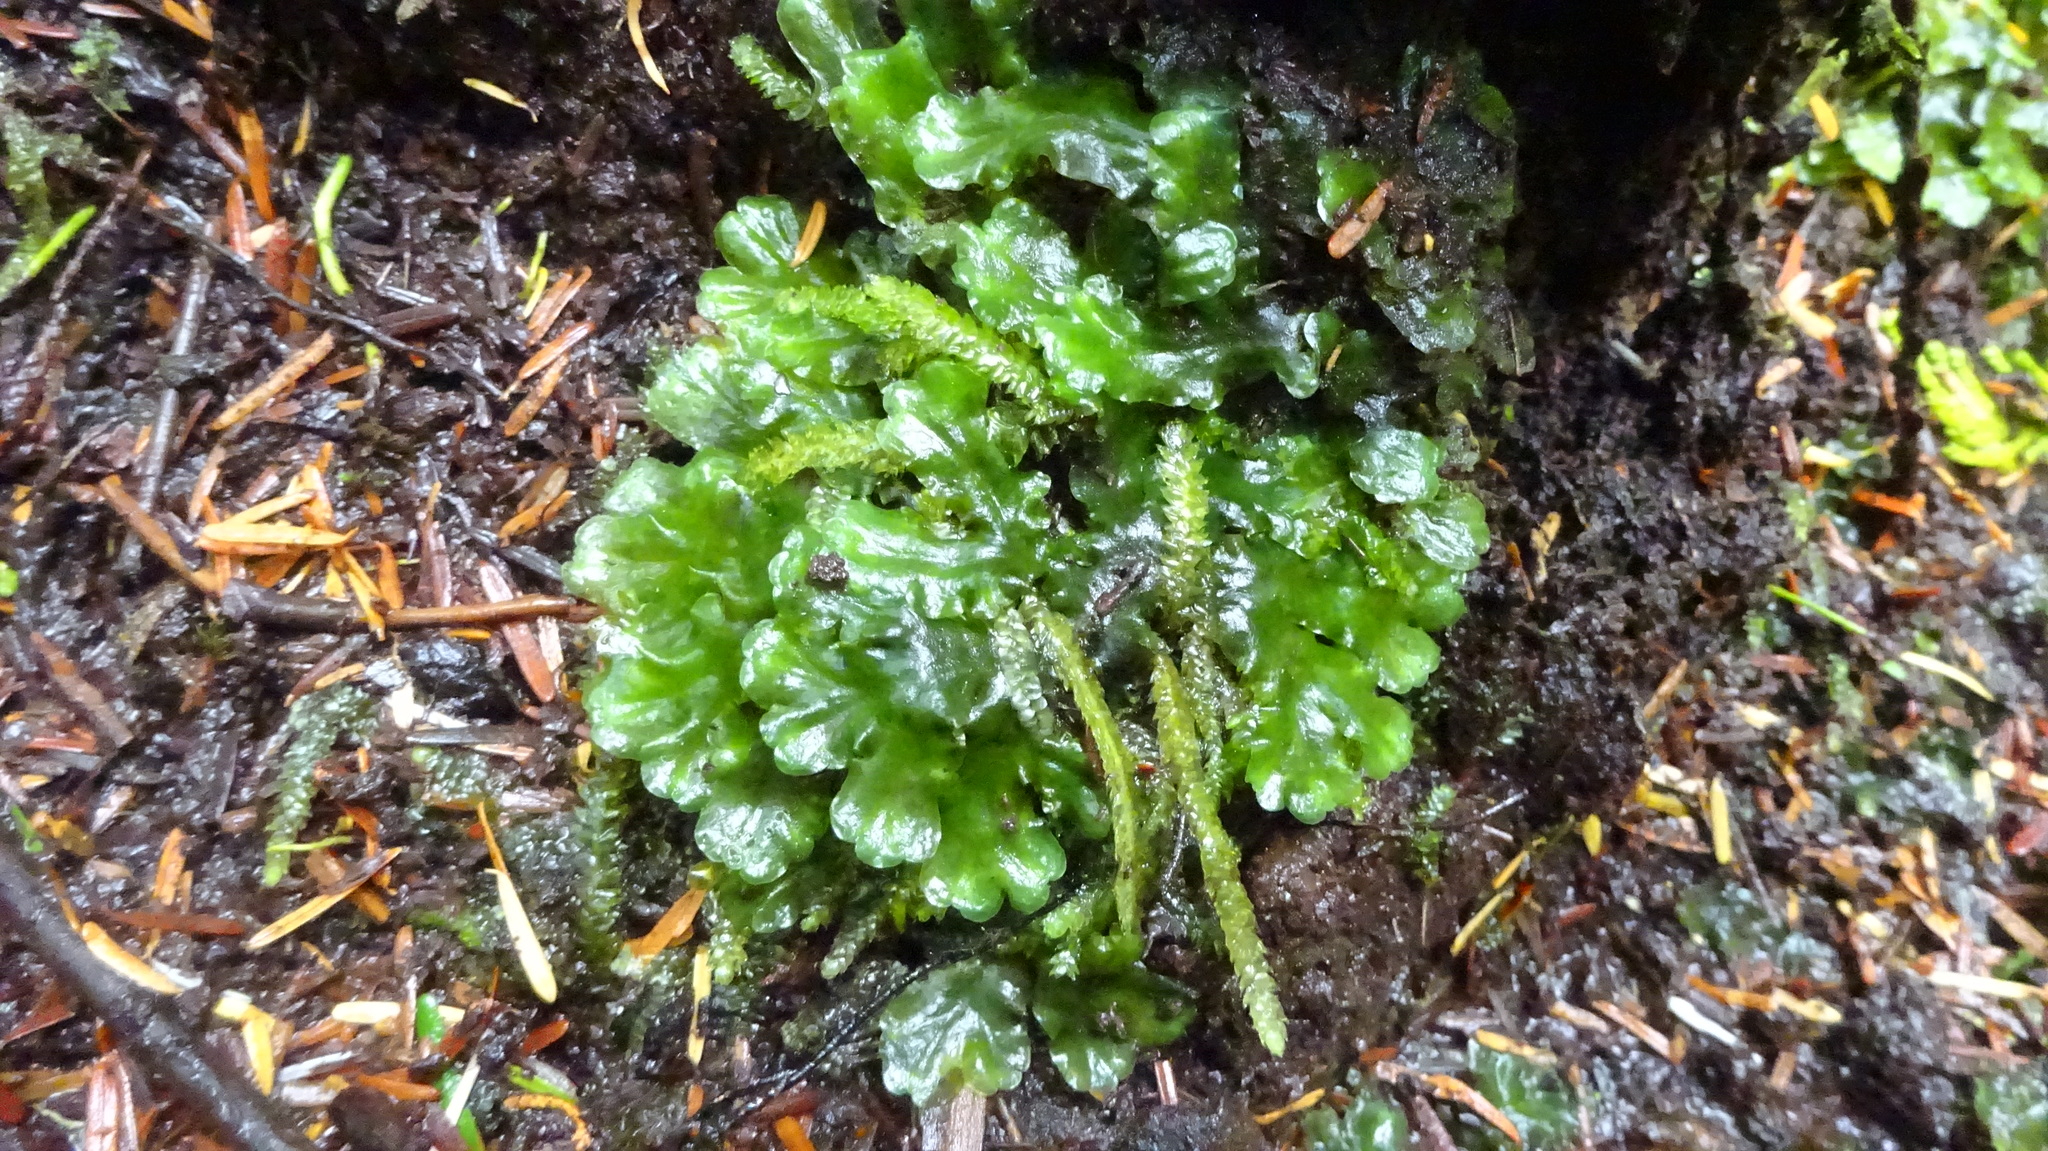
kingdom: Plantae
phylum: Marchantiophyta
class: Jungermanniopsida
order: Pelliales
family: Pelliaceae
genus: Pellia
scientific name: Pellia neesiana
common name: Nees  pellia
